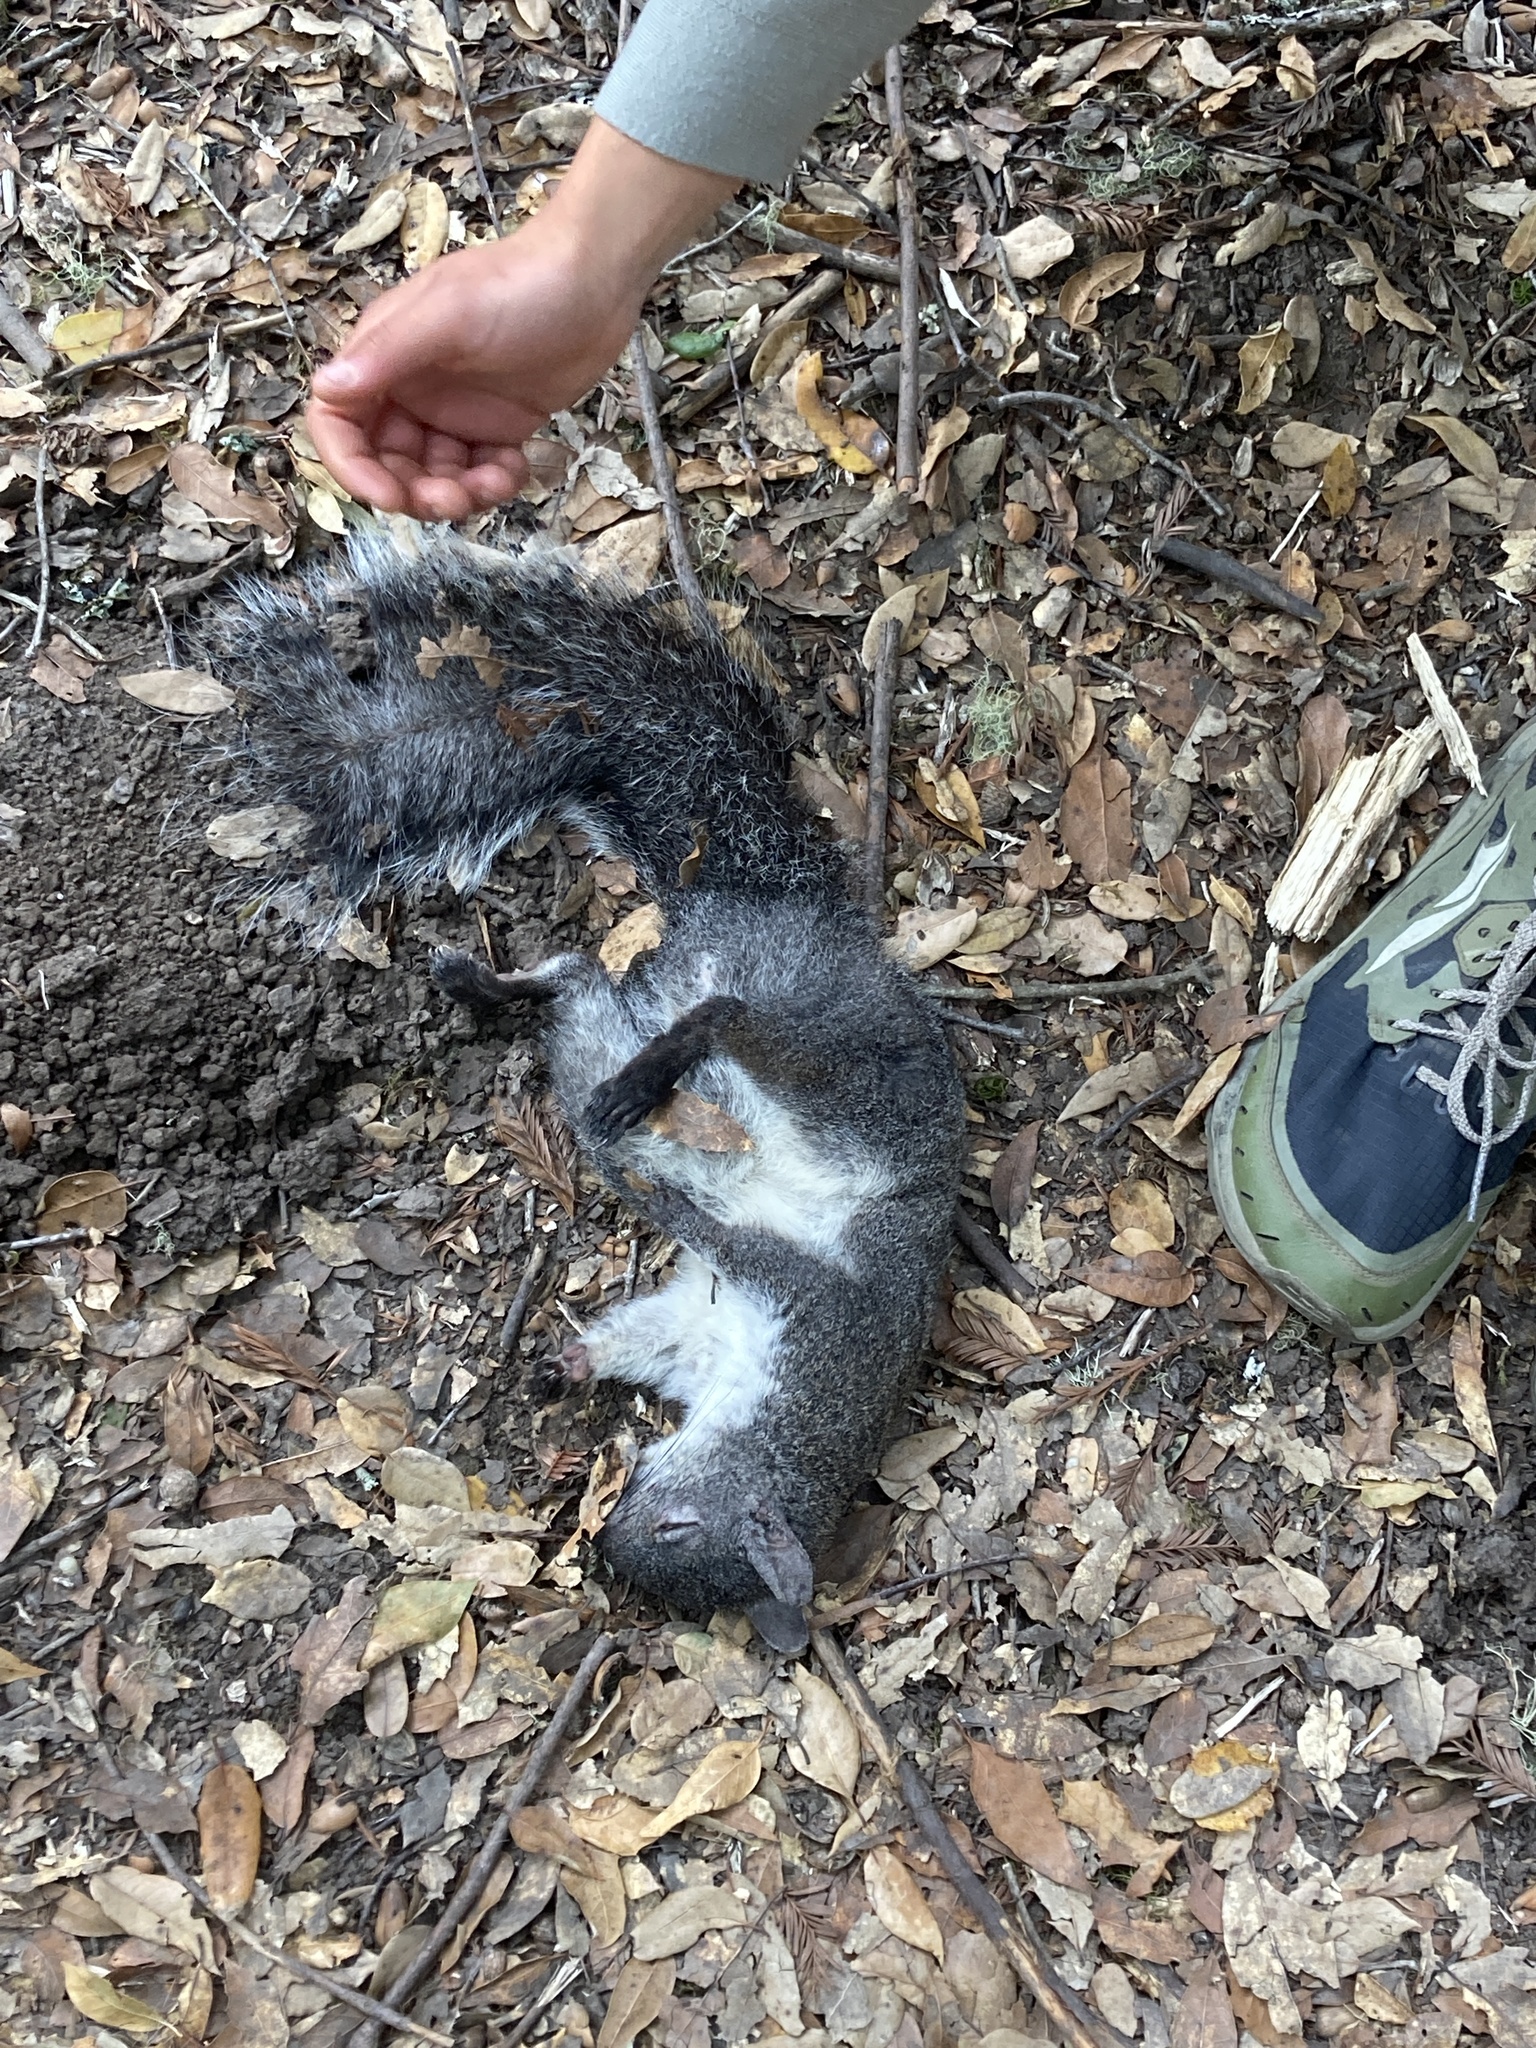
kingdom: Animalia
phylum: Chordata
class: Mammalia
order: Rodentia
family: Sciuridae
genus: Sciurus
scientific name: Sciurus griseus
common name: Western gray squirrel
